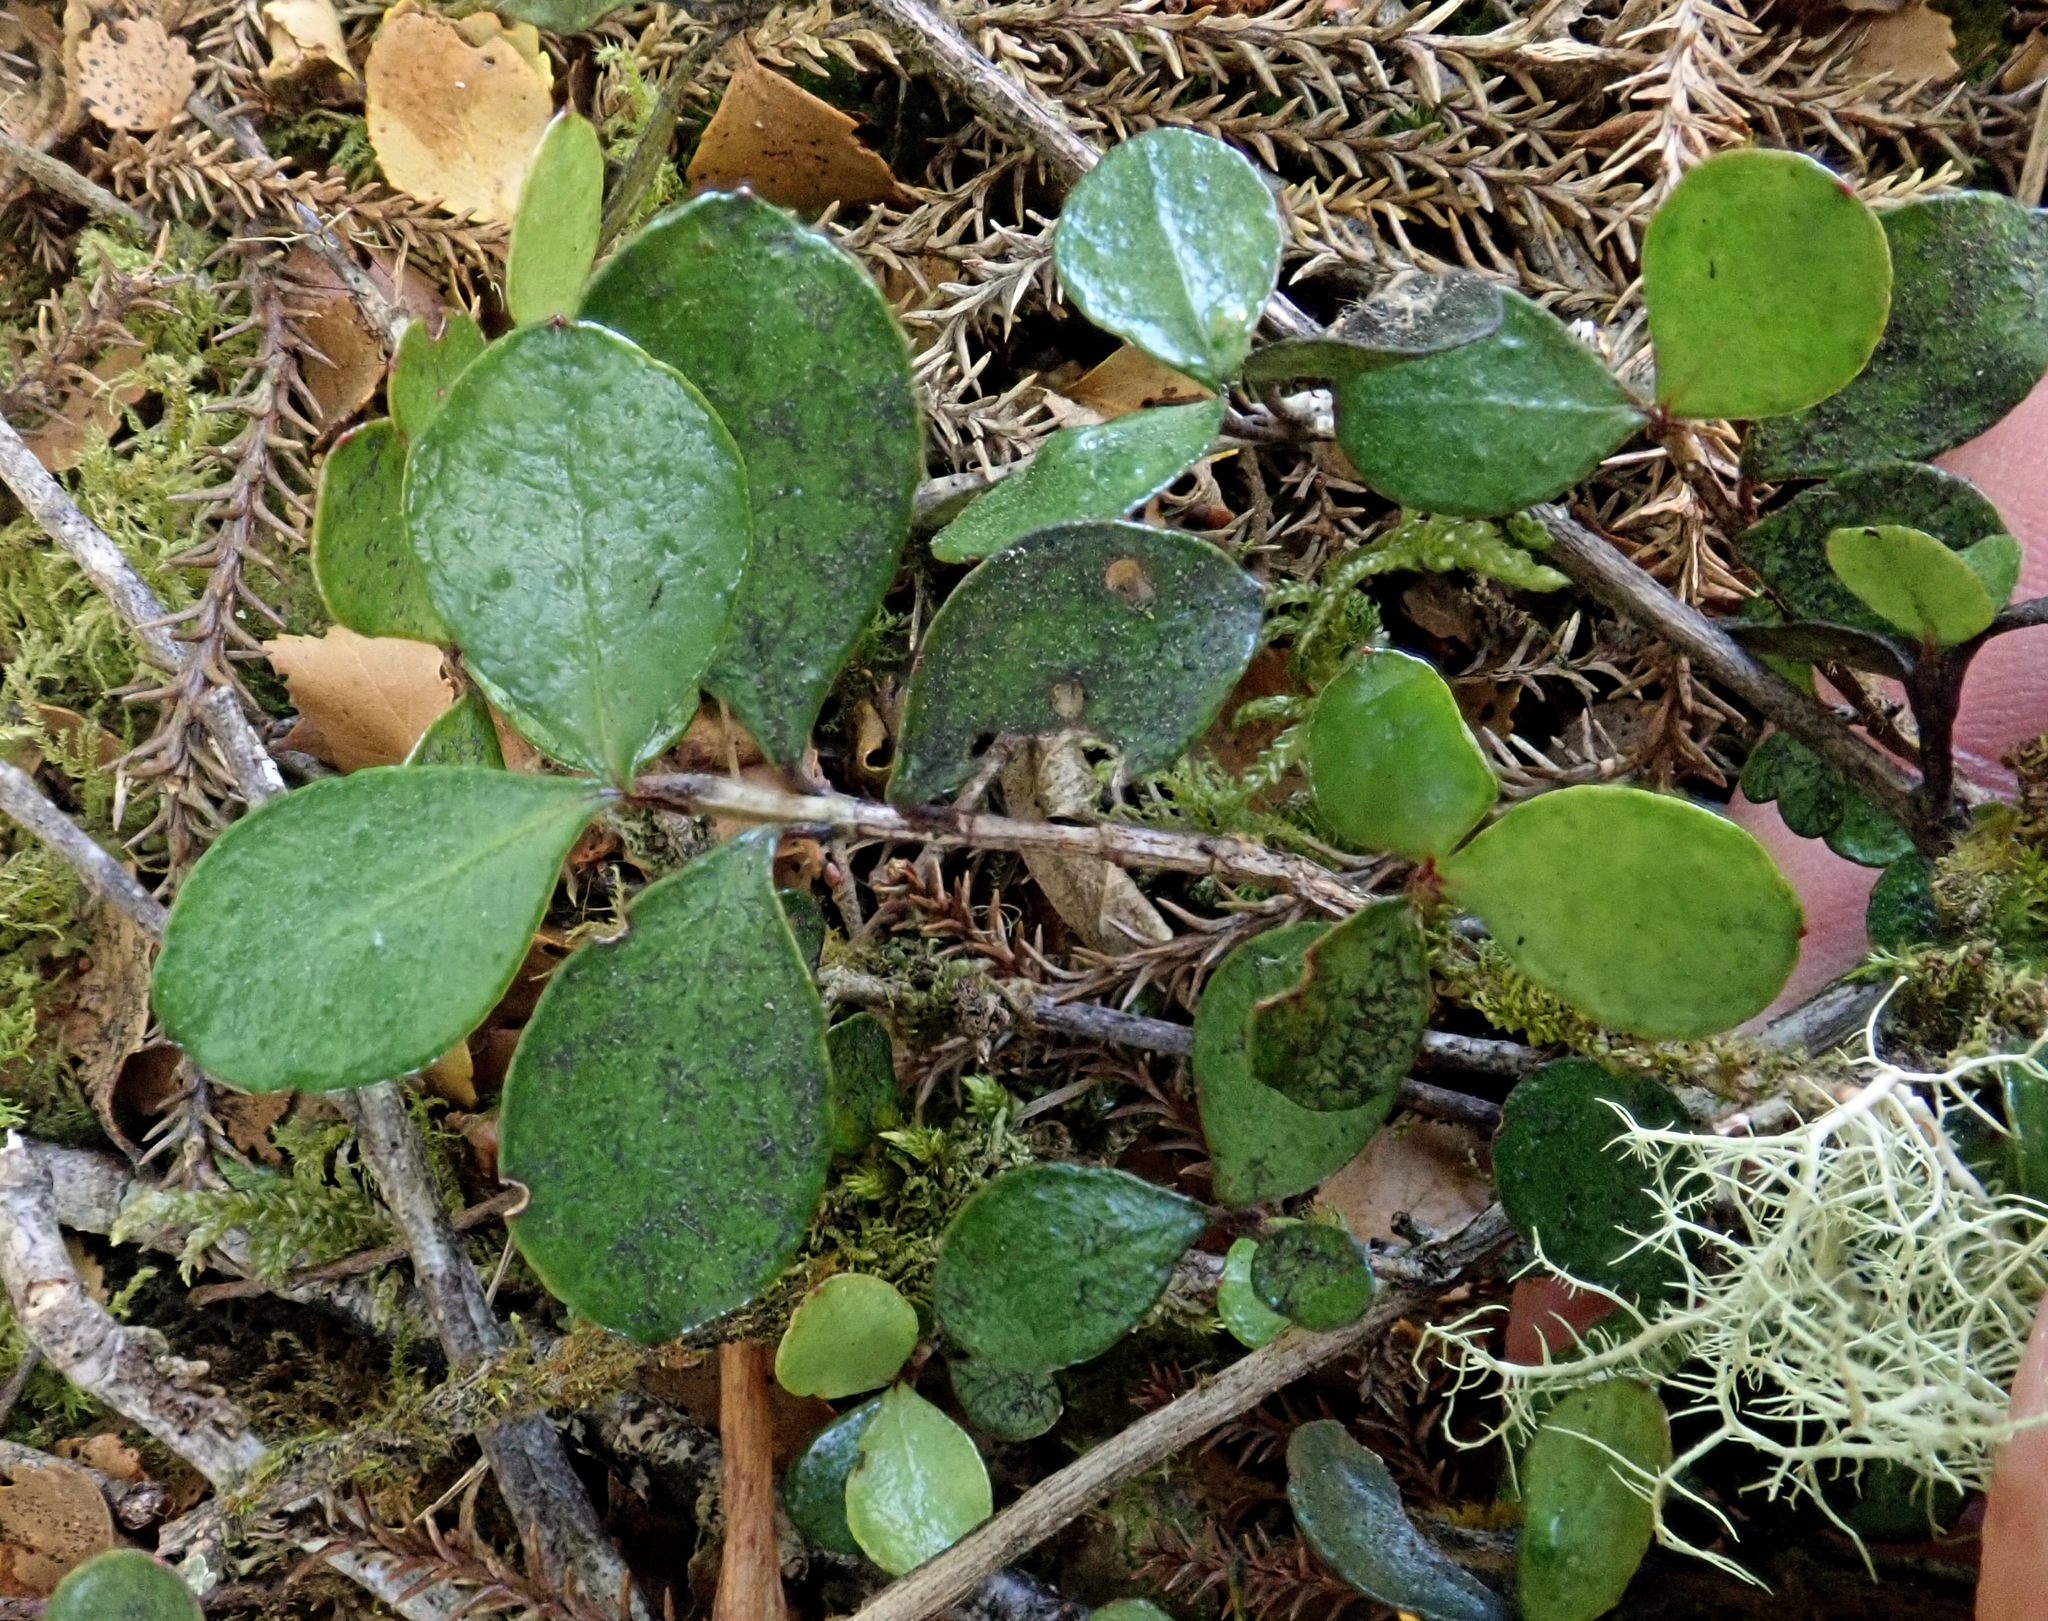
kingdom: Plantae
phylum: Tracheophyta
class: Magnoliopsida
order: Myrtales
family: Myrtaceae
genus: Neomyrtus
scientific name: Neomyrtus pedunculata
